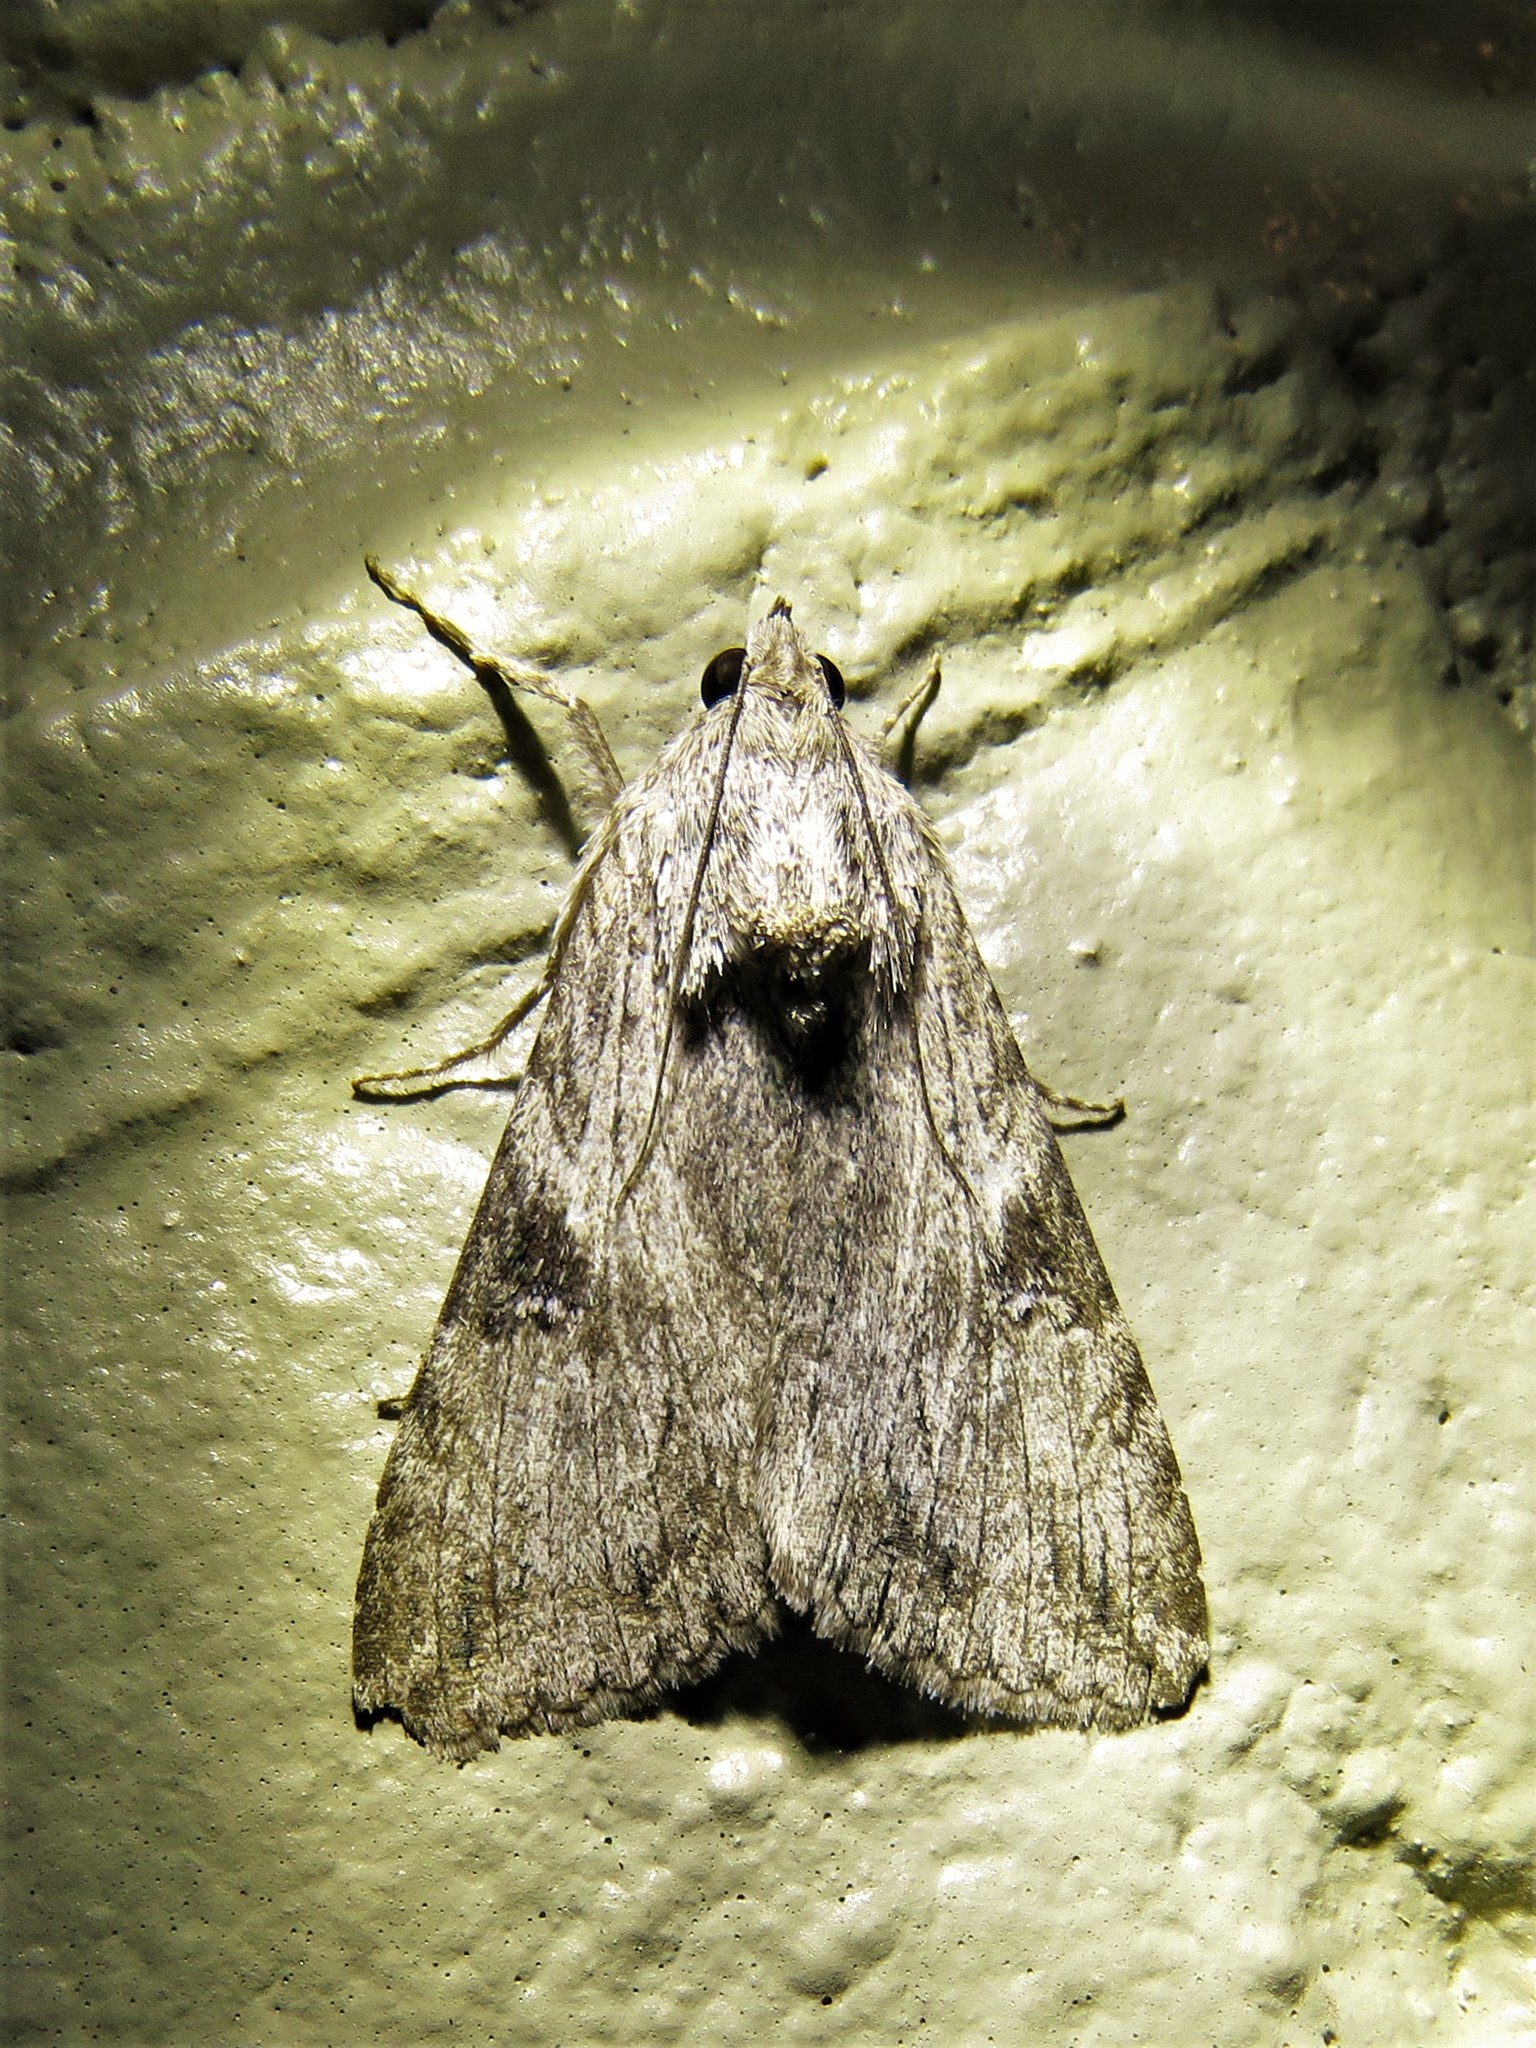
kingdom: Animalia
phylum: Arthropoda
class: Insecta
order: Lepidoptera
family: Erebidae
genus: Melipotis
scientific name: Melipotis jucunda
